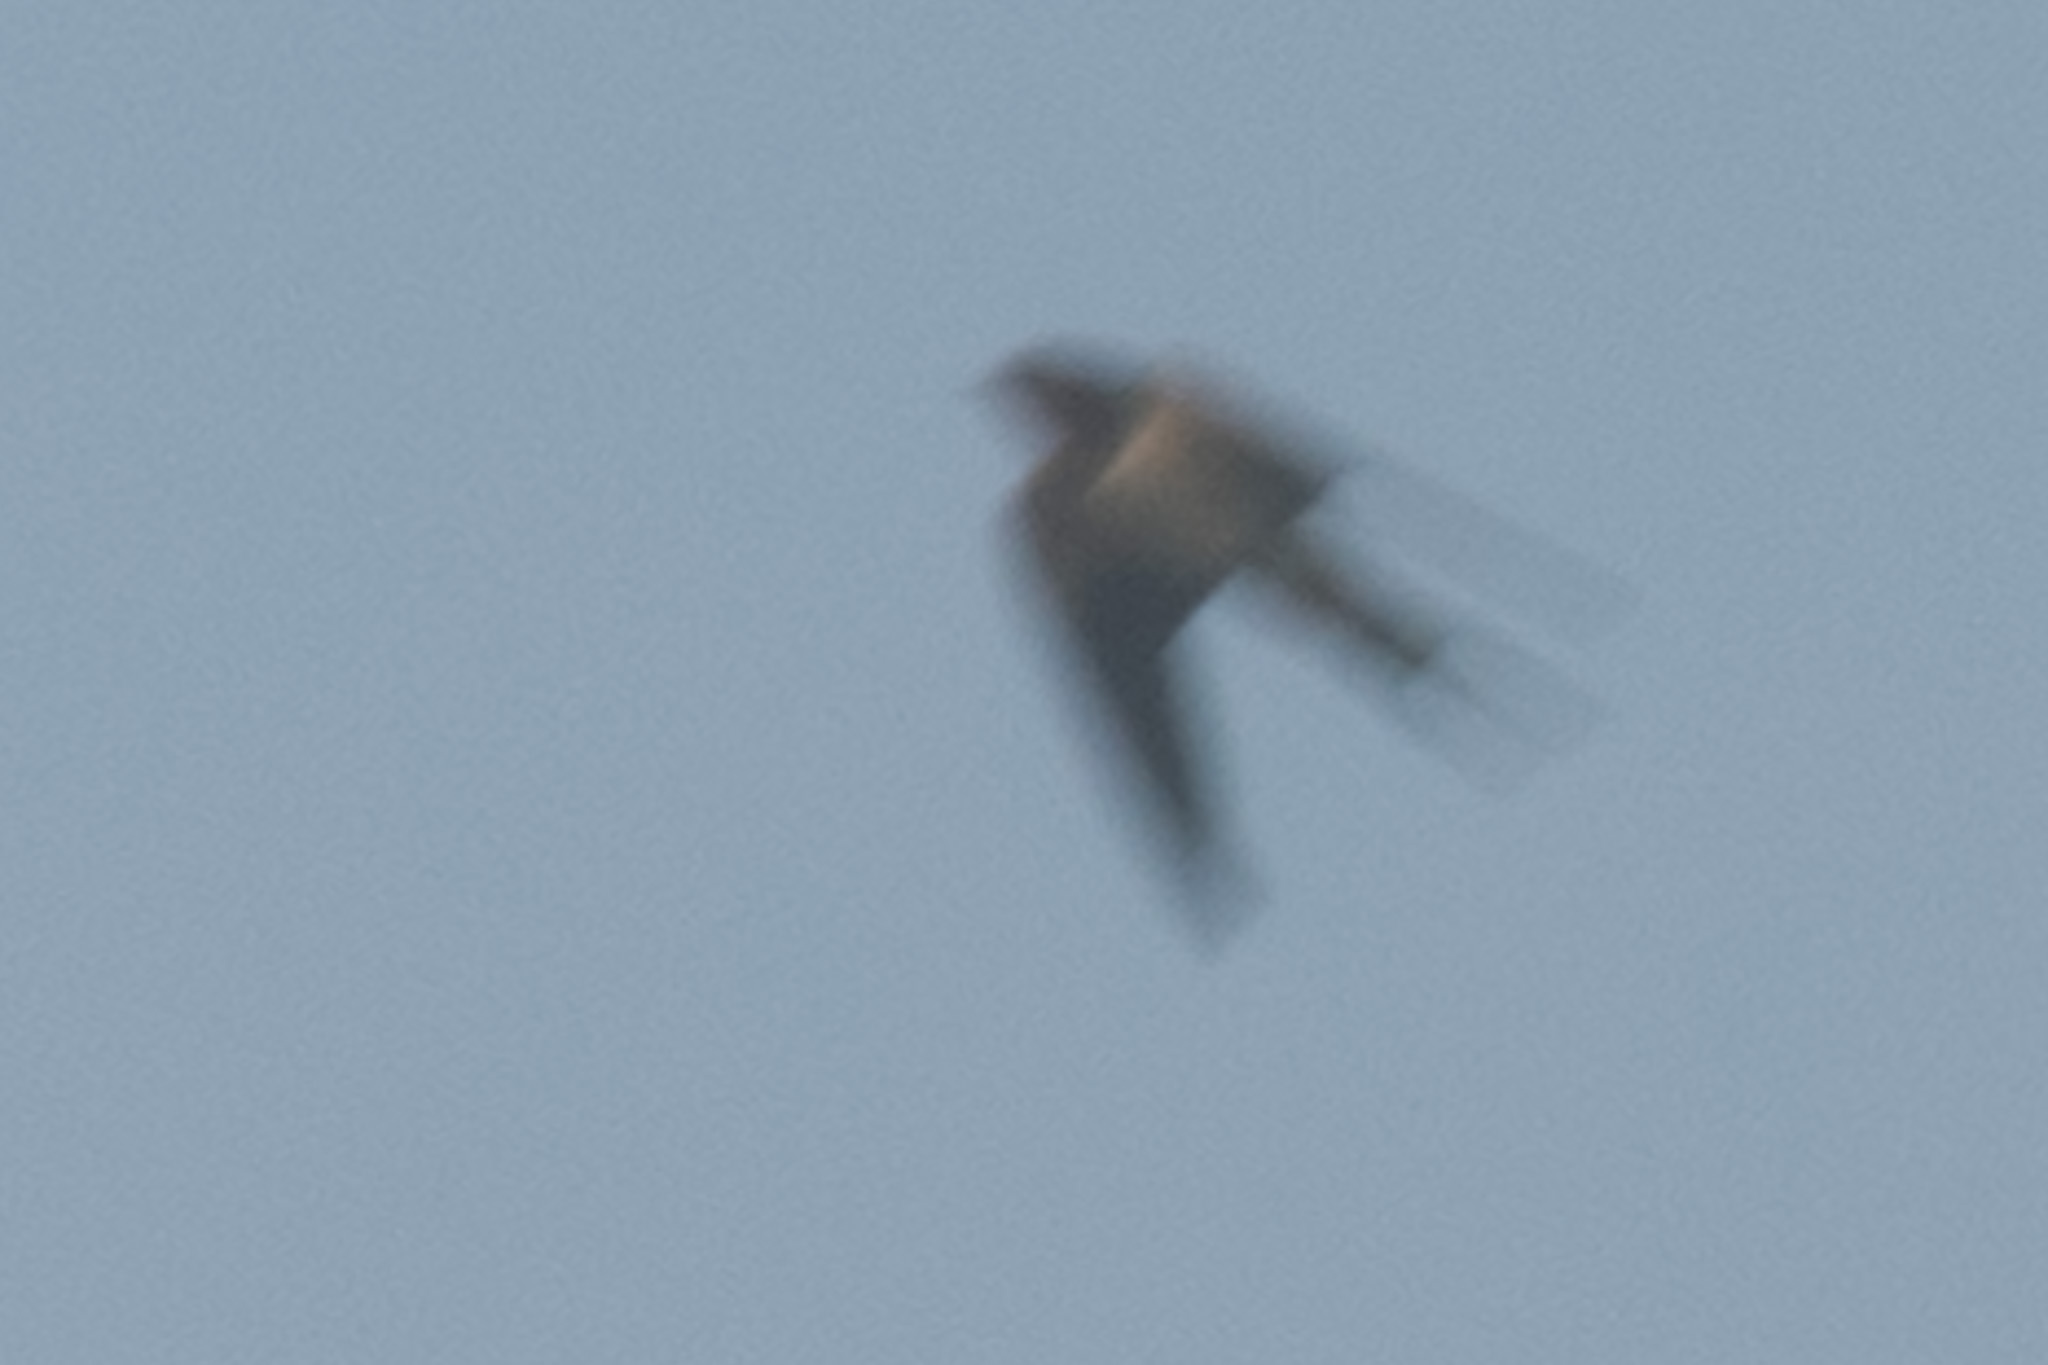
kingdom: Animalia
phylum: Chordata
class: Aves
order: Passeriformes
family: Hirundinidae
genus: Hirundo
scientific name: Hirundo rustica
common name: Barn swallow
